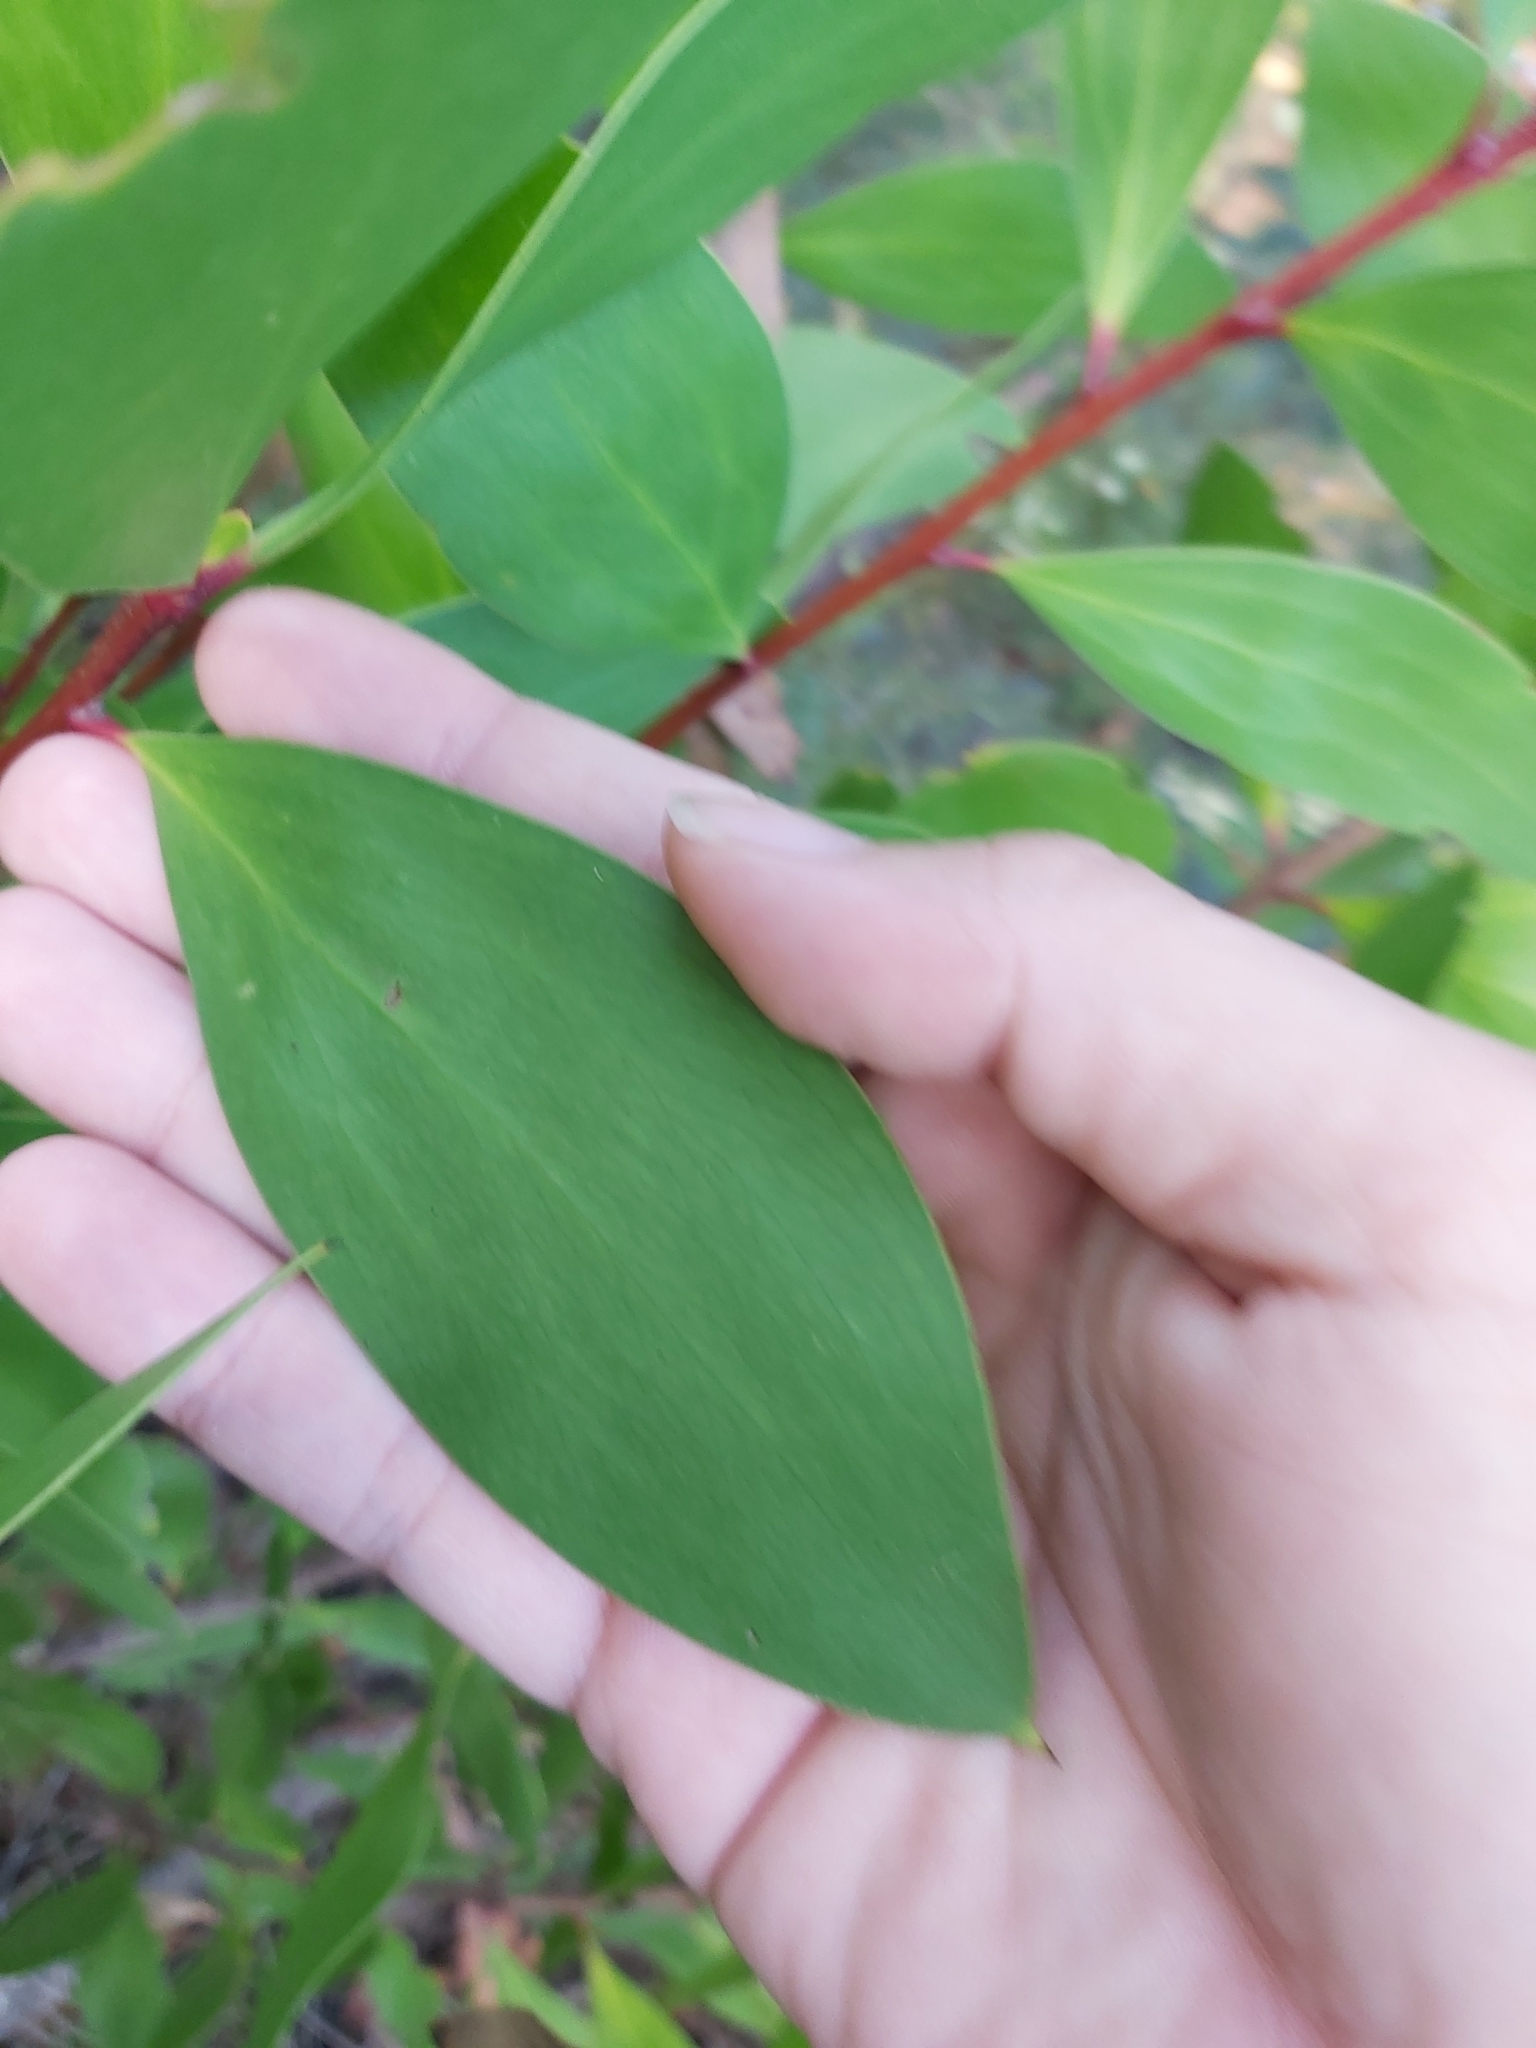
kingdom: Plantae
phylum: Tracheophyta
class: Magnoliopsida
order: Proteales
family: Proteaceae
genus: Persoonia
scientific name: Persoonia levis
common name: Smooth geebung
